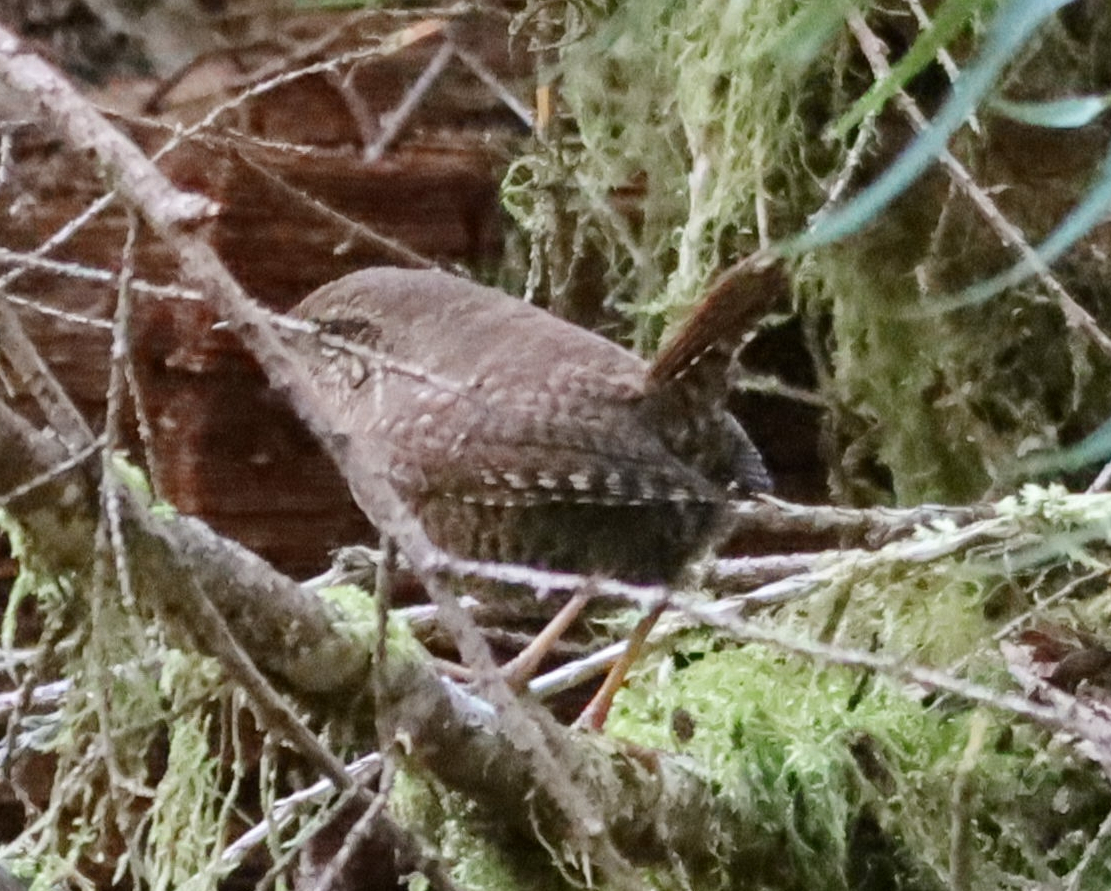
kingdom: Animalia
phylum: Chordata
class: Aves
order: Passeriformes
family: Troglodytidae
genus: Troglodytes
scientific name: Troglodytes pacificus
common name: Pacific wren
